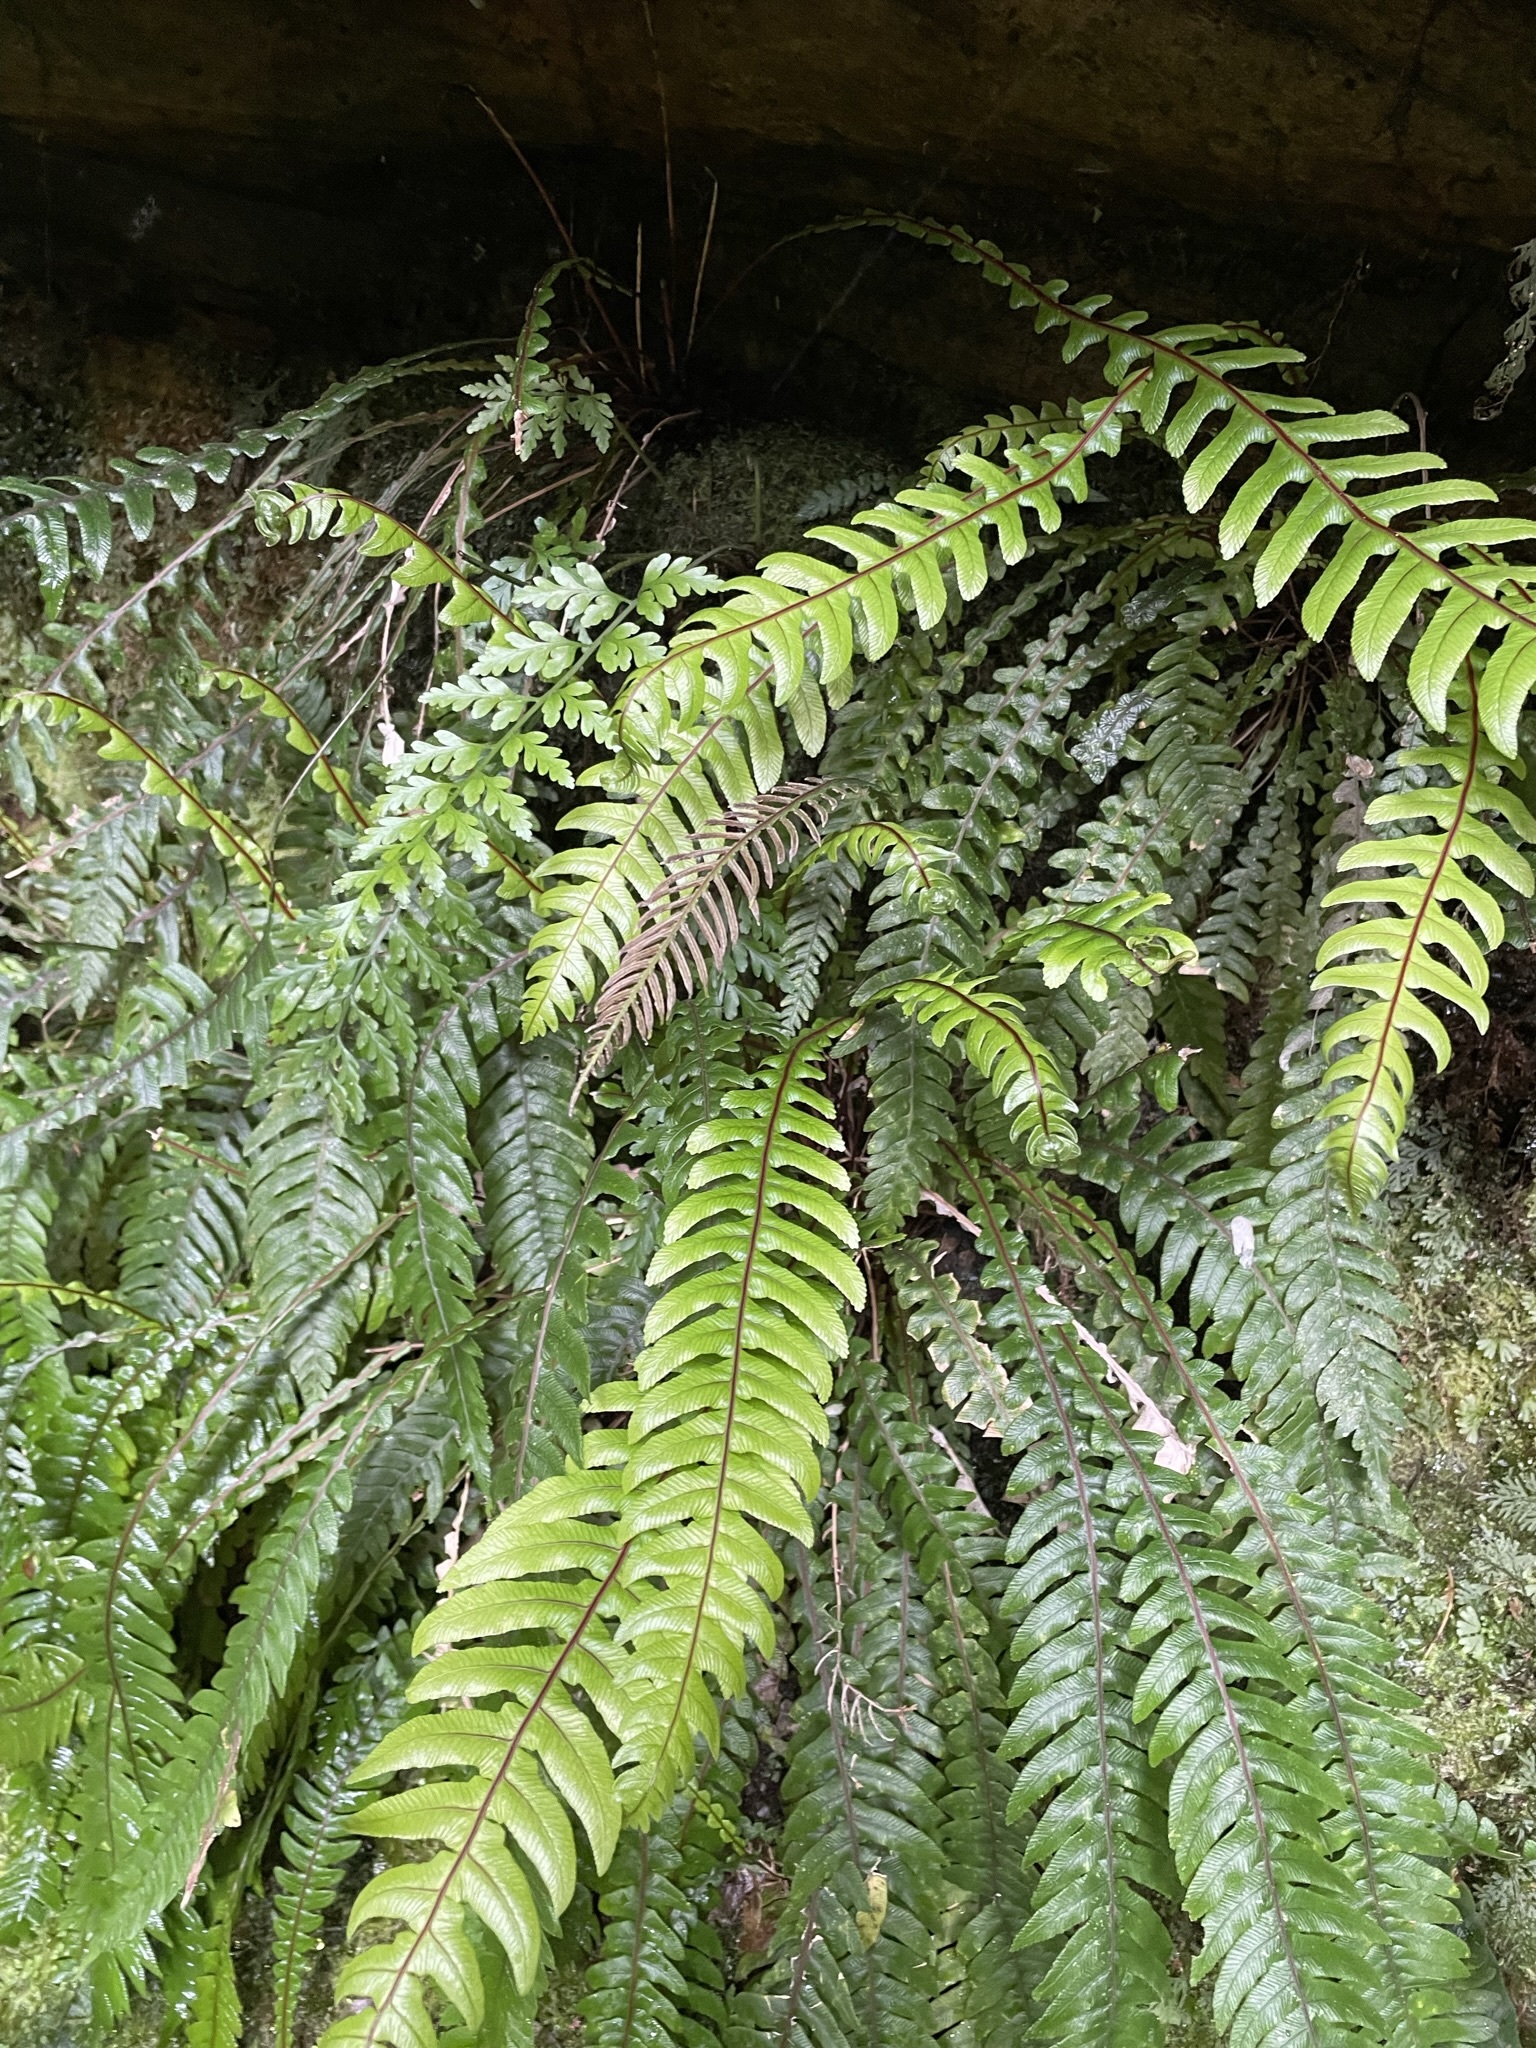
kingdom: Plantae
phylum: Tracheophyta
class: Polypodiopsida
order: Polypodiales
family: Blechnaceae
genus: Cranfillia
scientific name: Cranfillia deltoides
